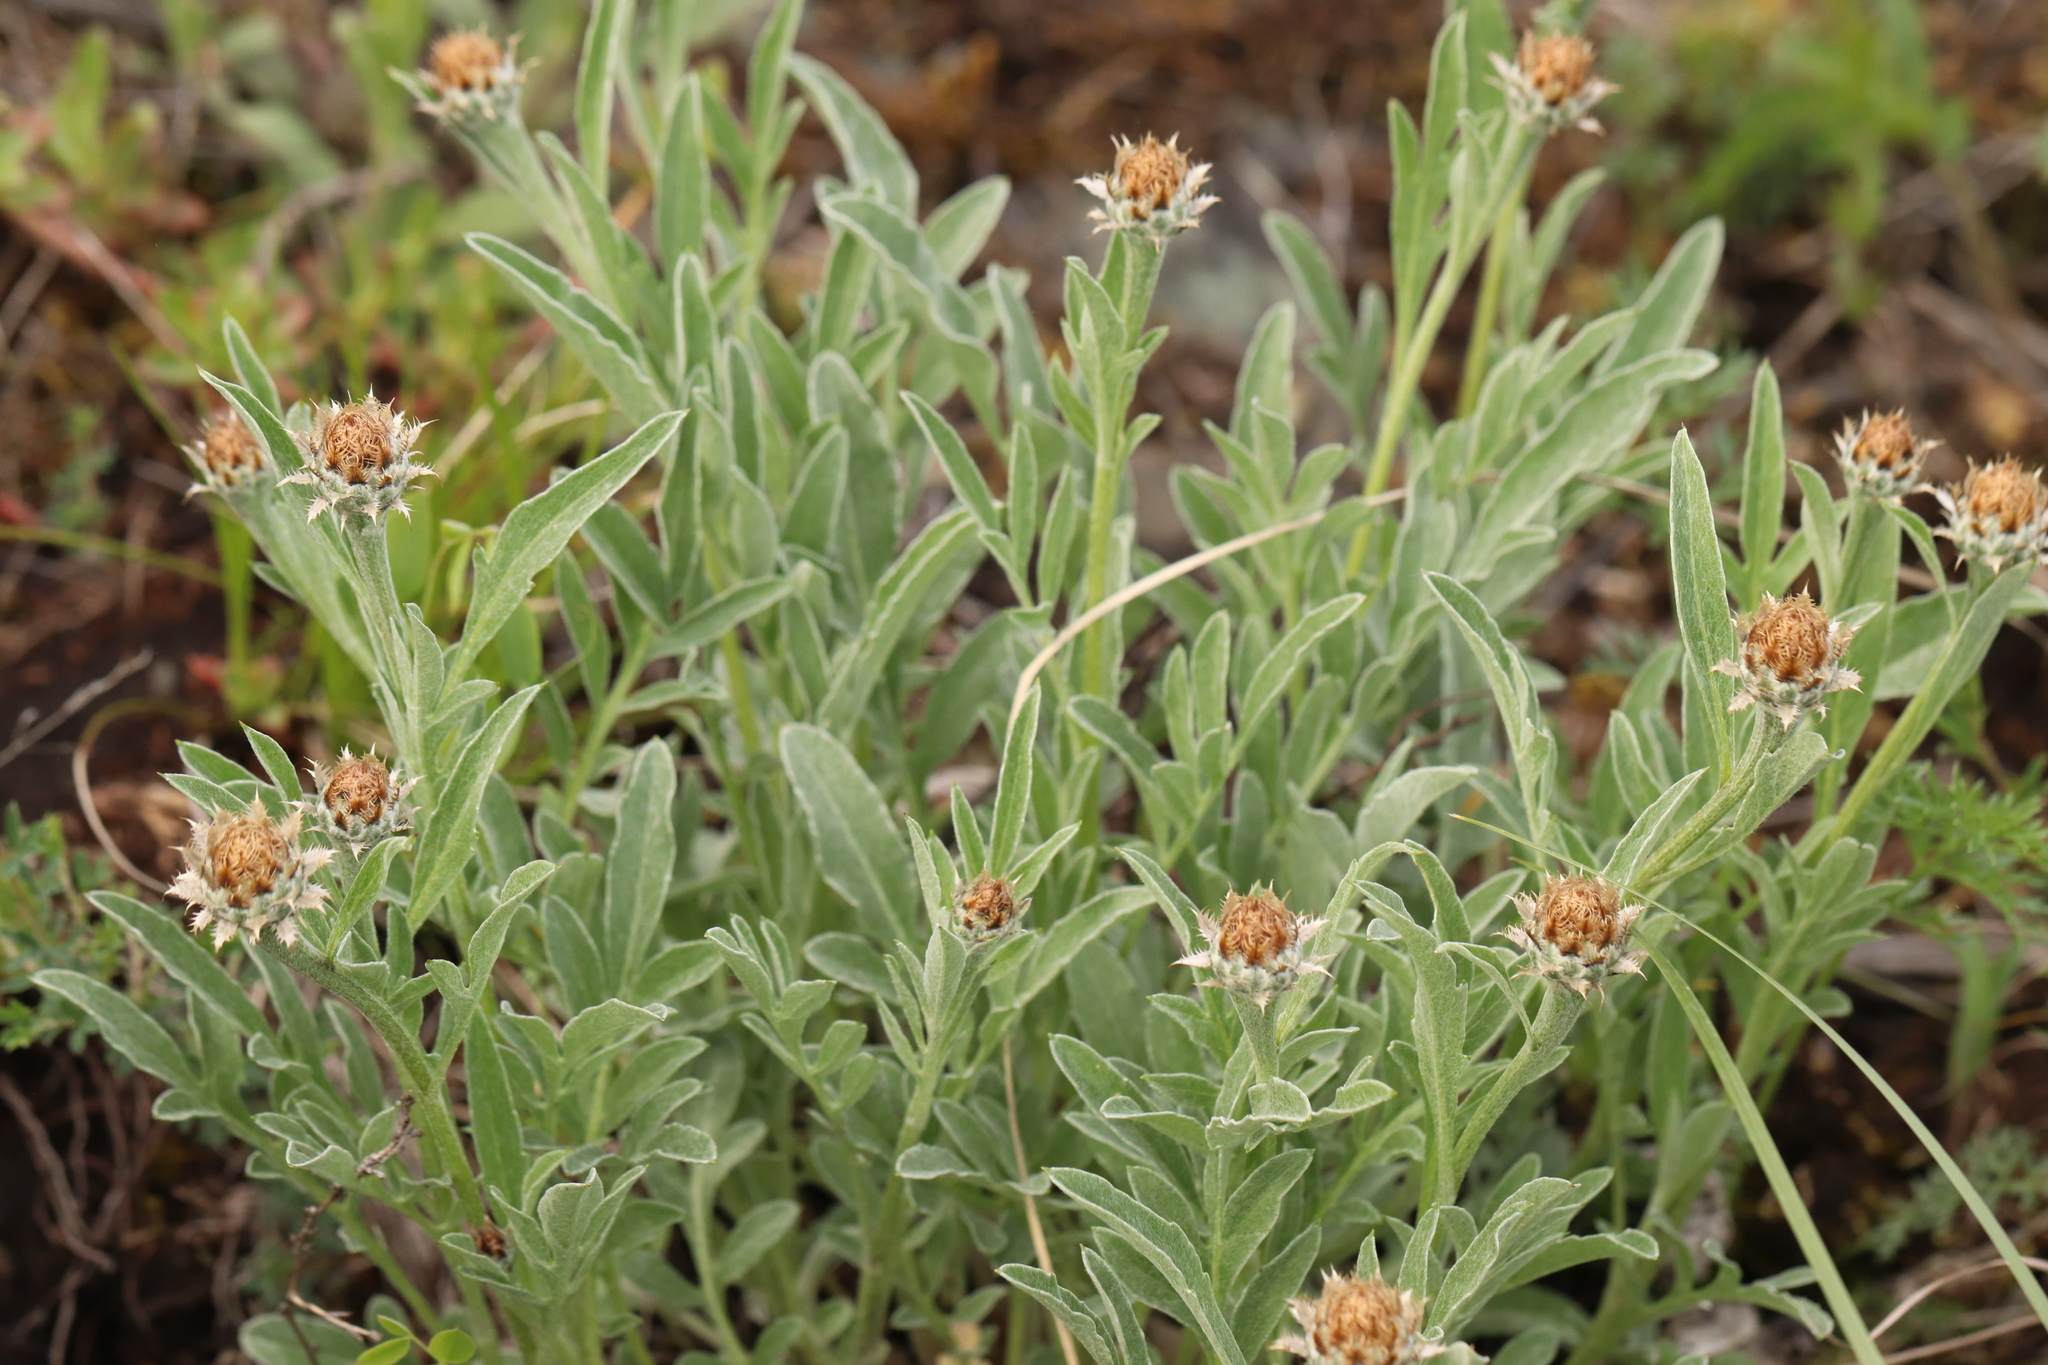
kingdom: Plantae
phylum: Tracheophyta
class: Magnoliopsida
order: Asterales
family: Asteraceae
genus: Psephellus
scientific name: Psephellus sibiricus
